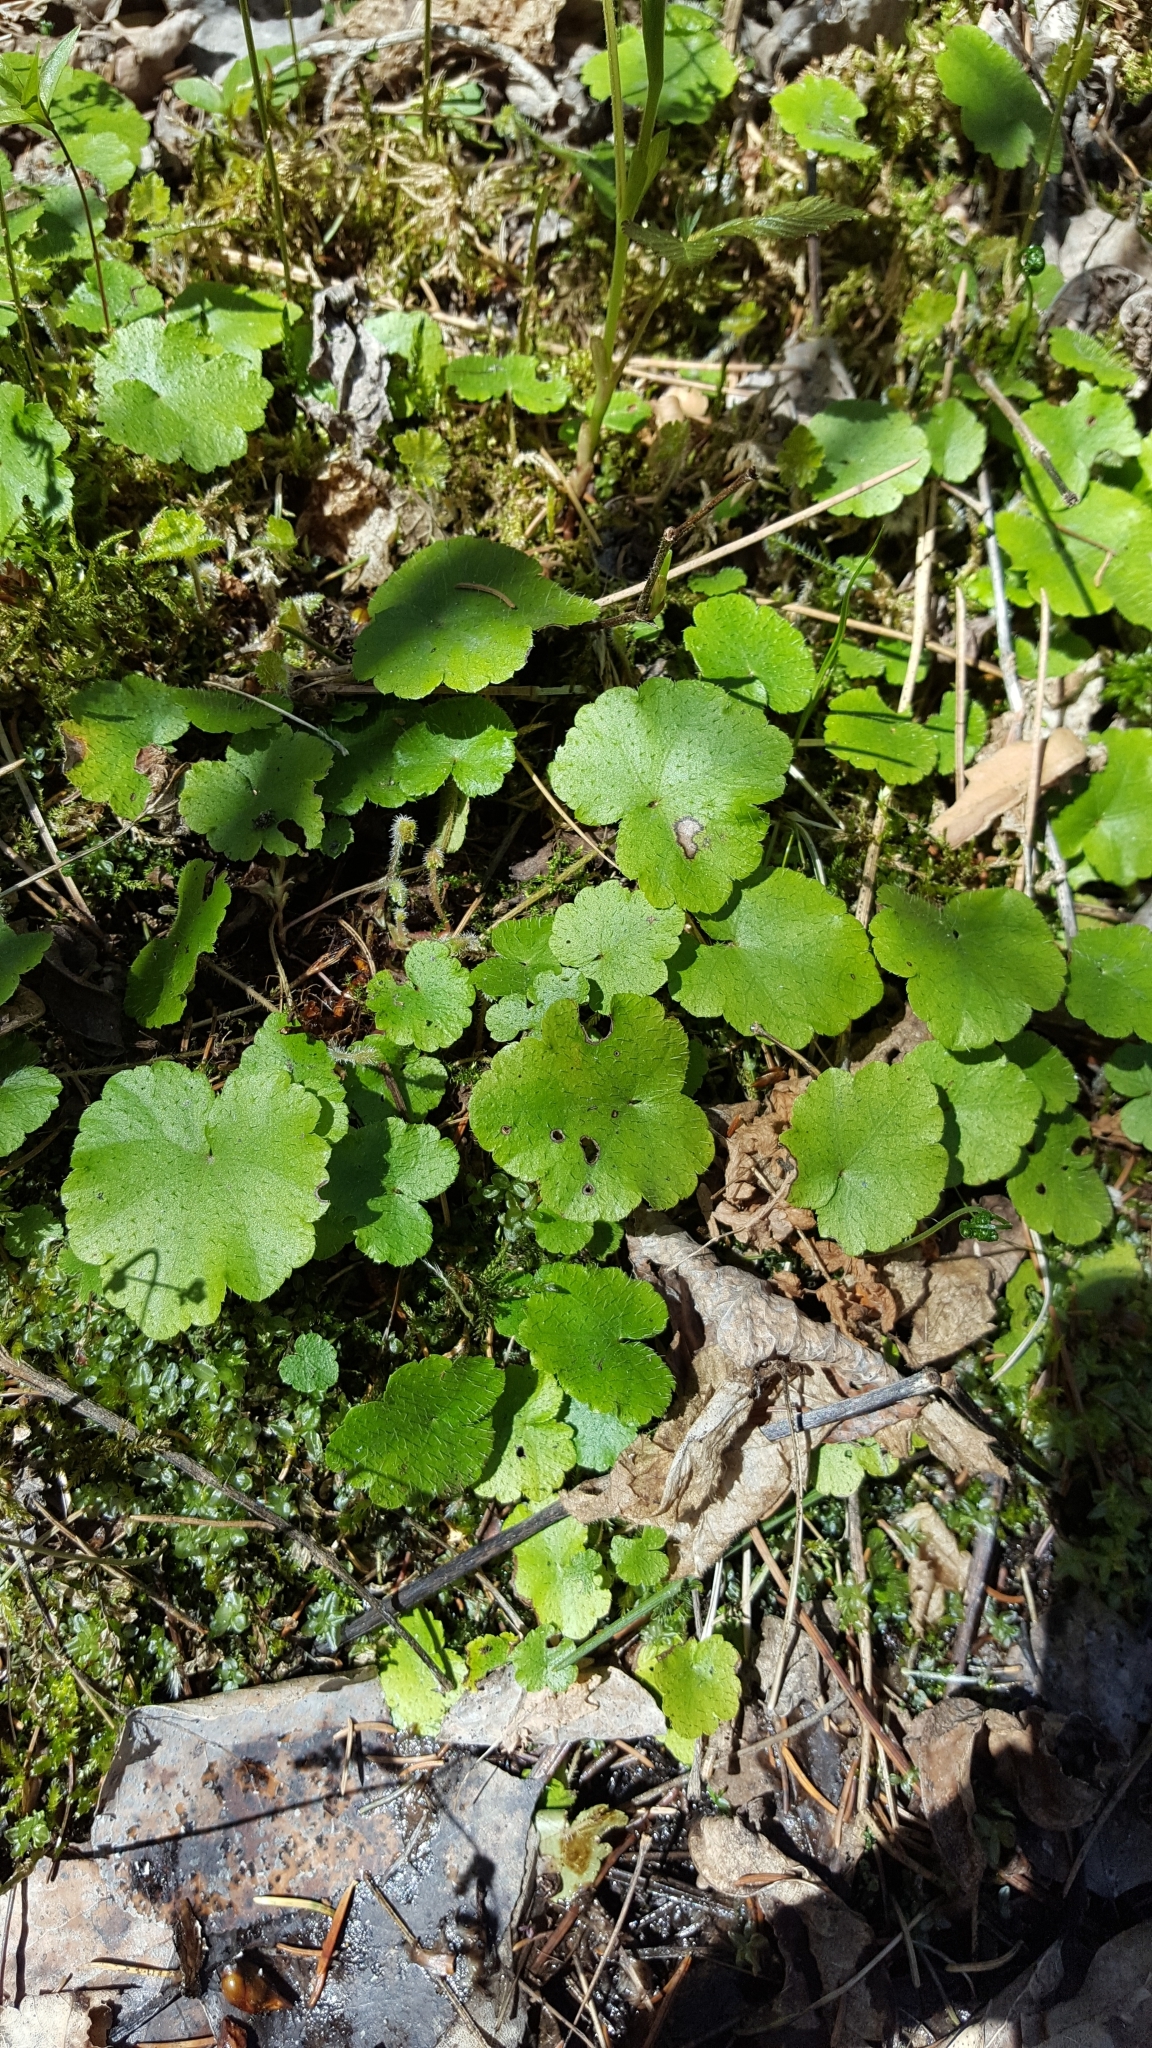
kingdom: Plantae
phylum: Tracheophyta
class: Magnoliopsida
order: Saxifragales
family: Saxifragaceae
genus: Mitella
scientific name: Mitella nuda
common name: Bare-stemmed bishop's-cap
